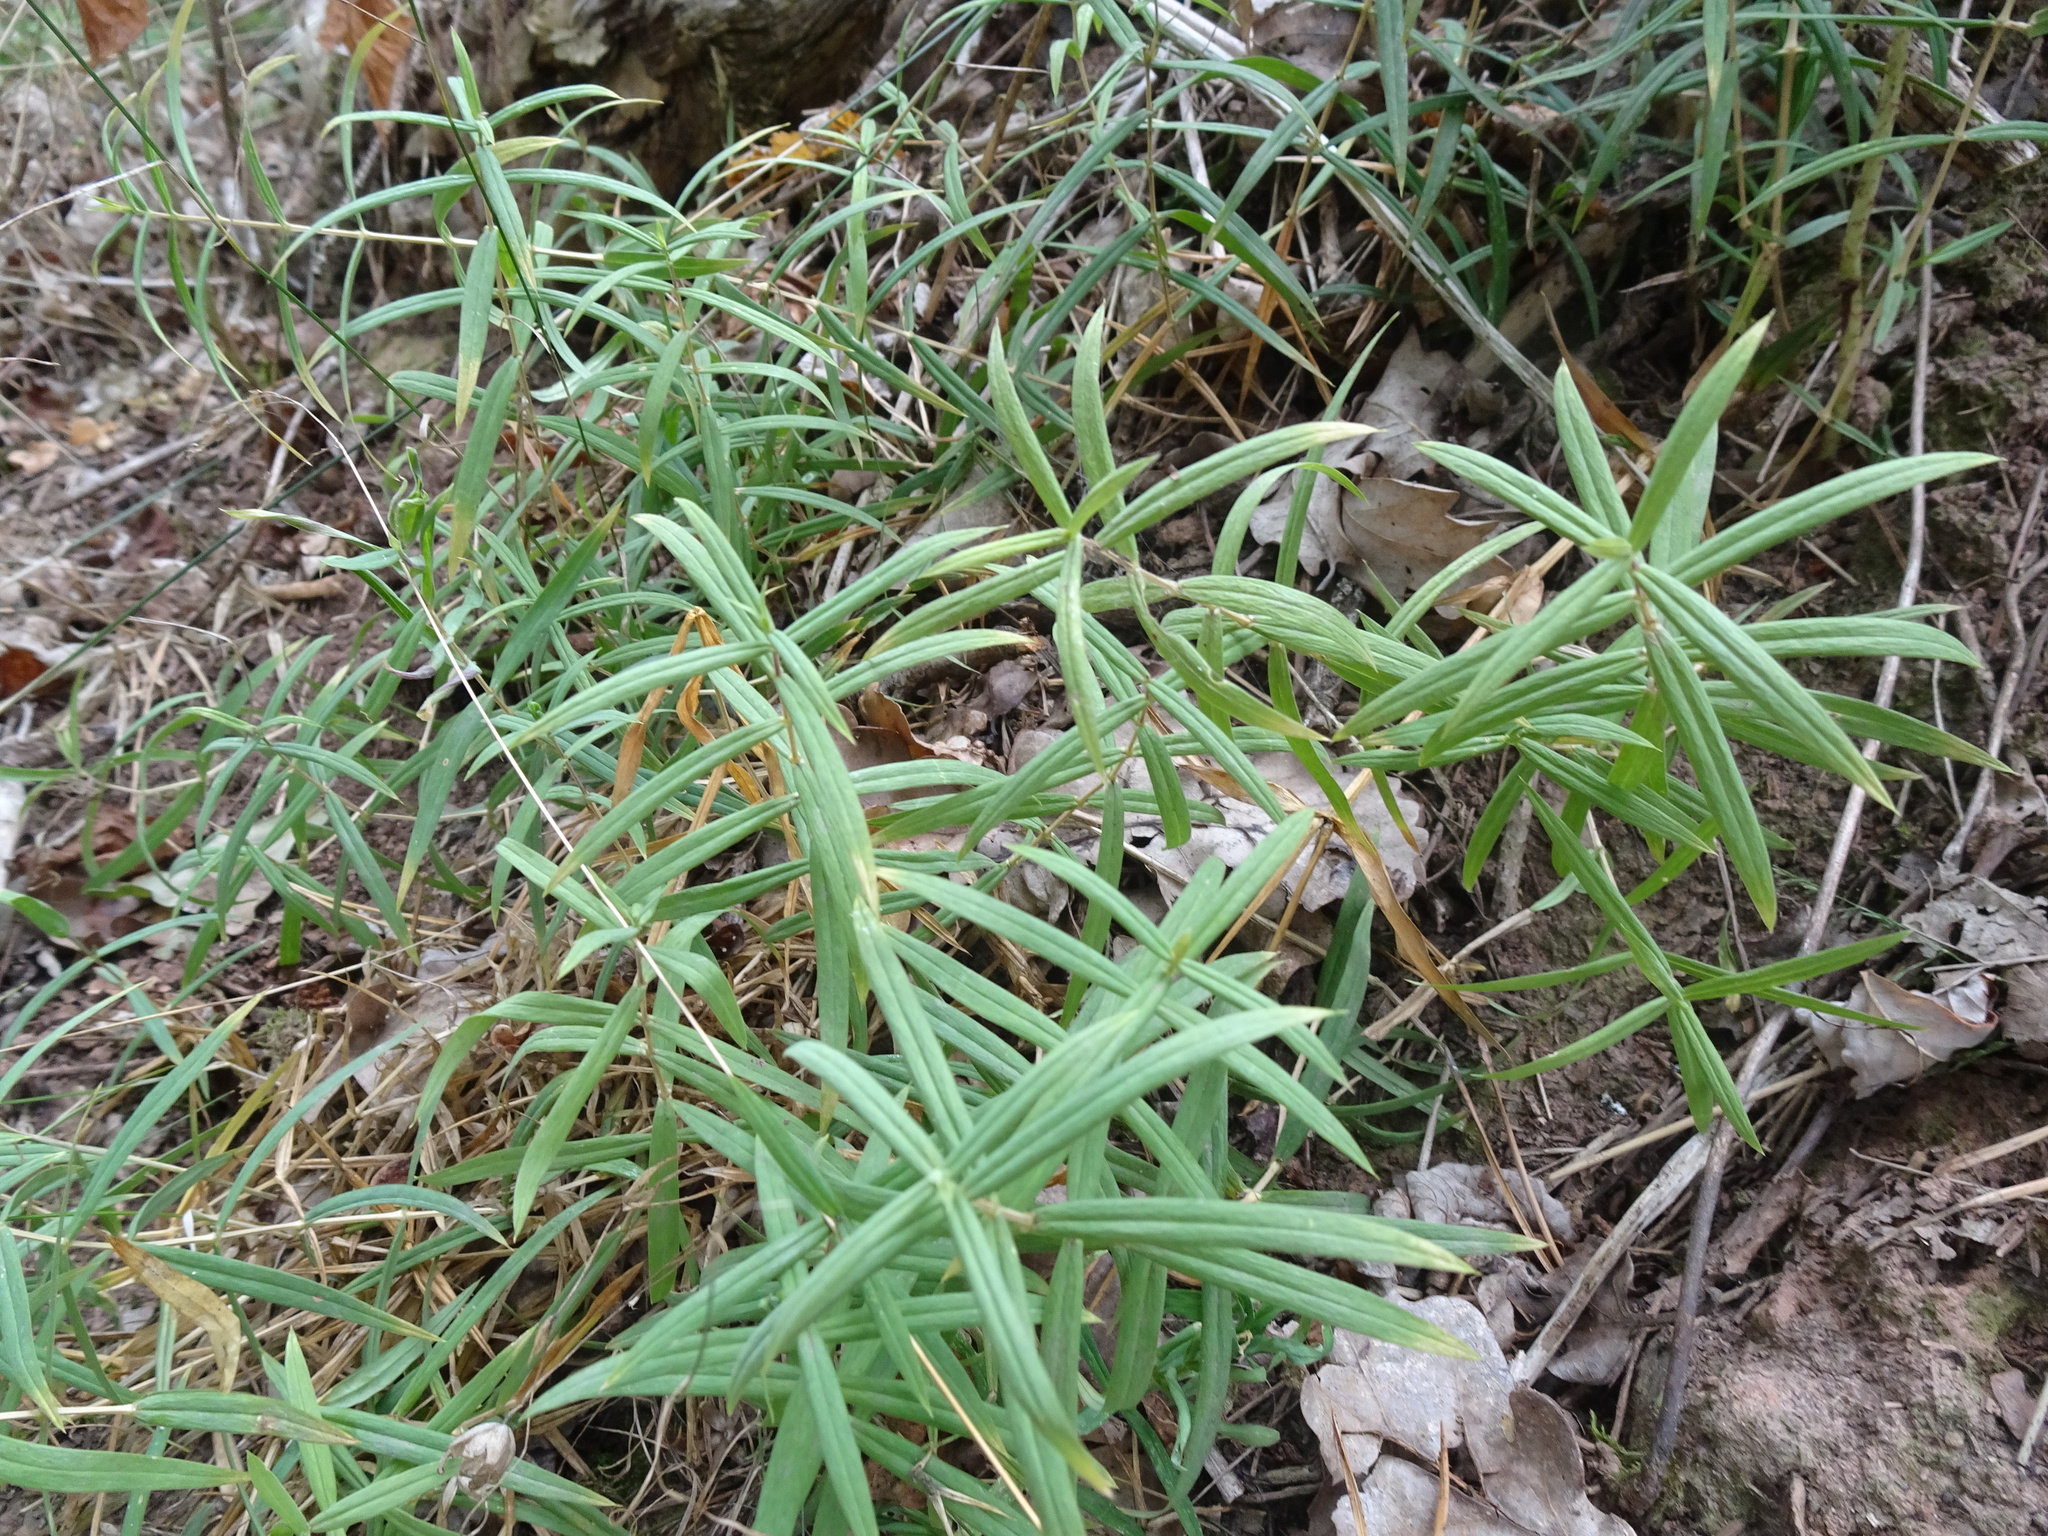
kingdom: Plantae
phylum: Tracheophyta
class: Magnoliopsida
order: Caryophyllales
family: Caryophyllaceae
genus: Rabelera
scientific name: Rabelera holostea
